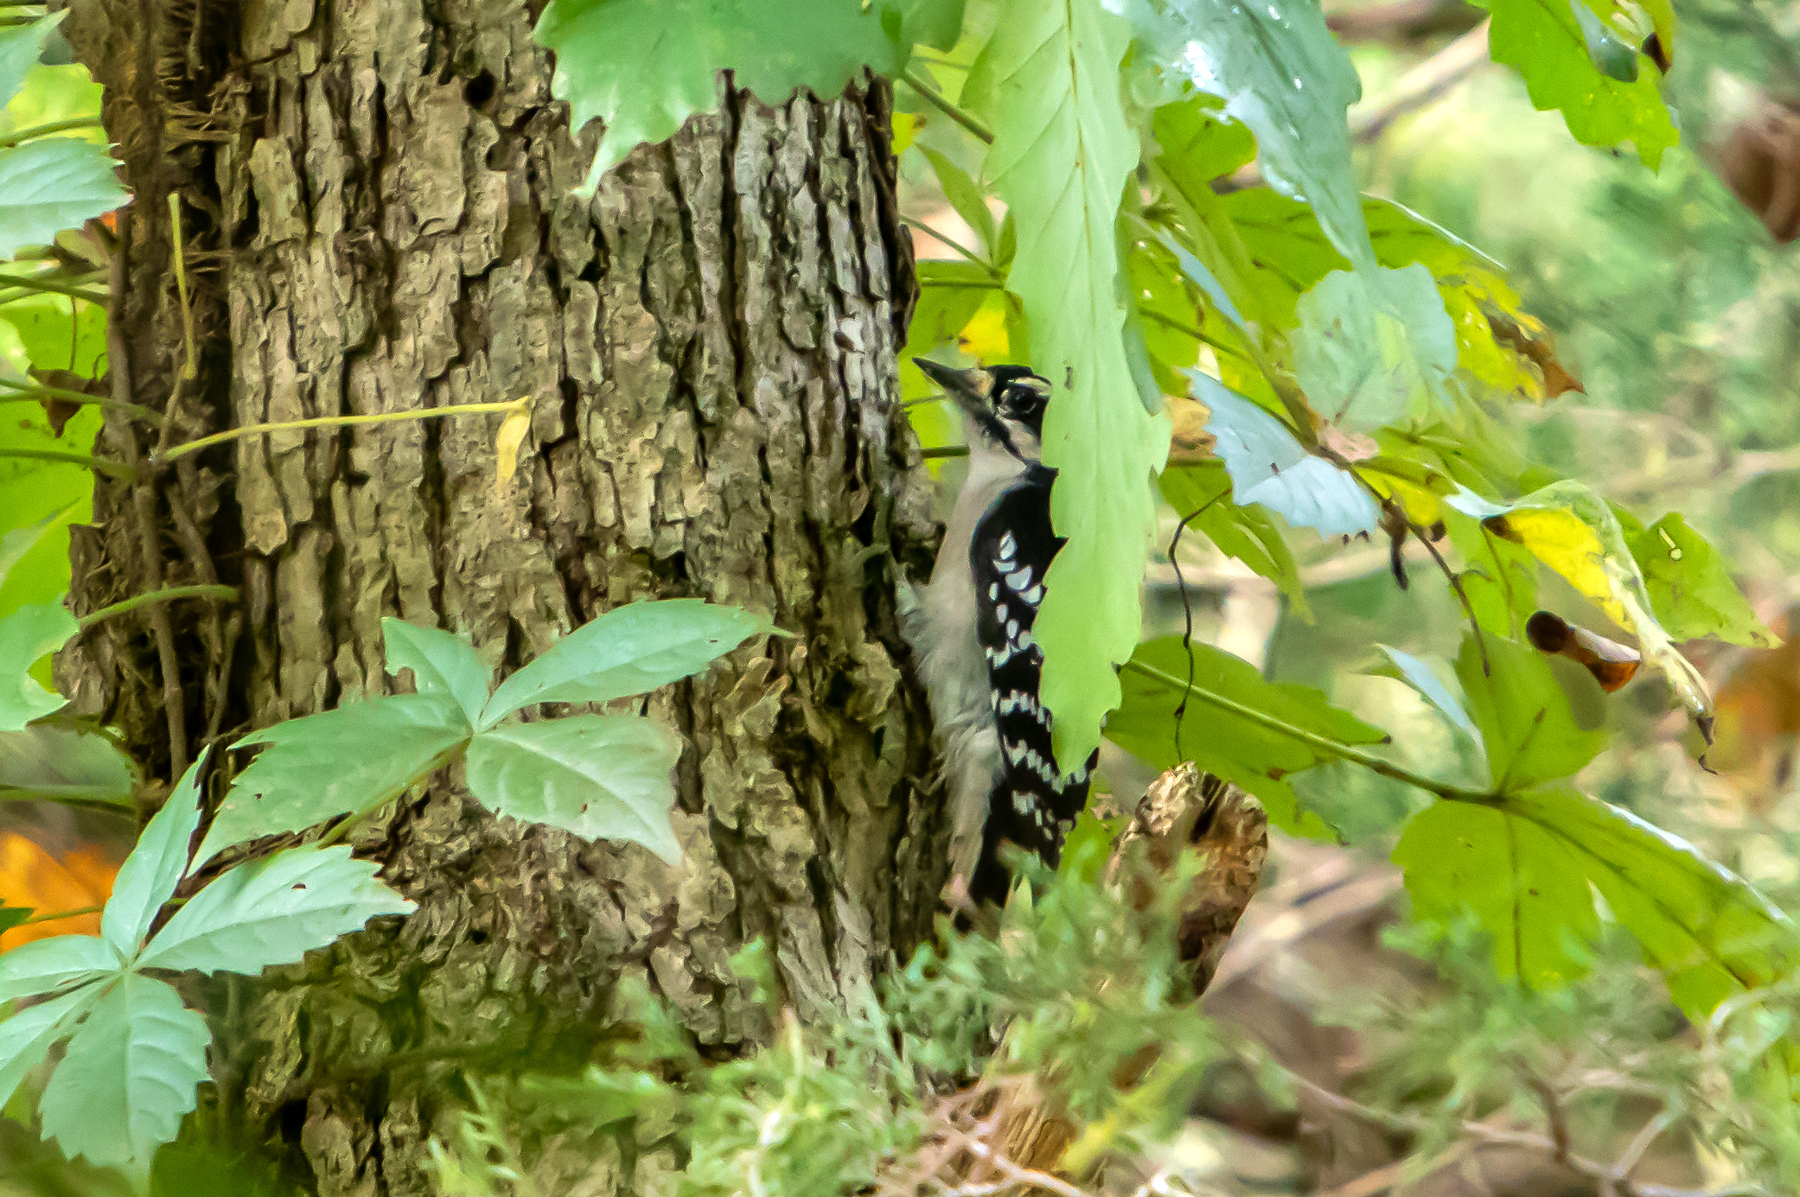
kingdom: Animalia
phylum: Chordata
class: Aves
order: Piciformes
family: Picidae
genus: Dryobates
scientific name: Dryobates pubescens
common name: Downy woodpecker
